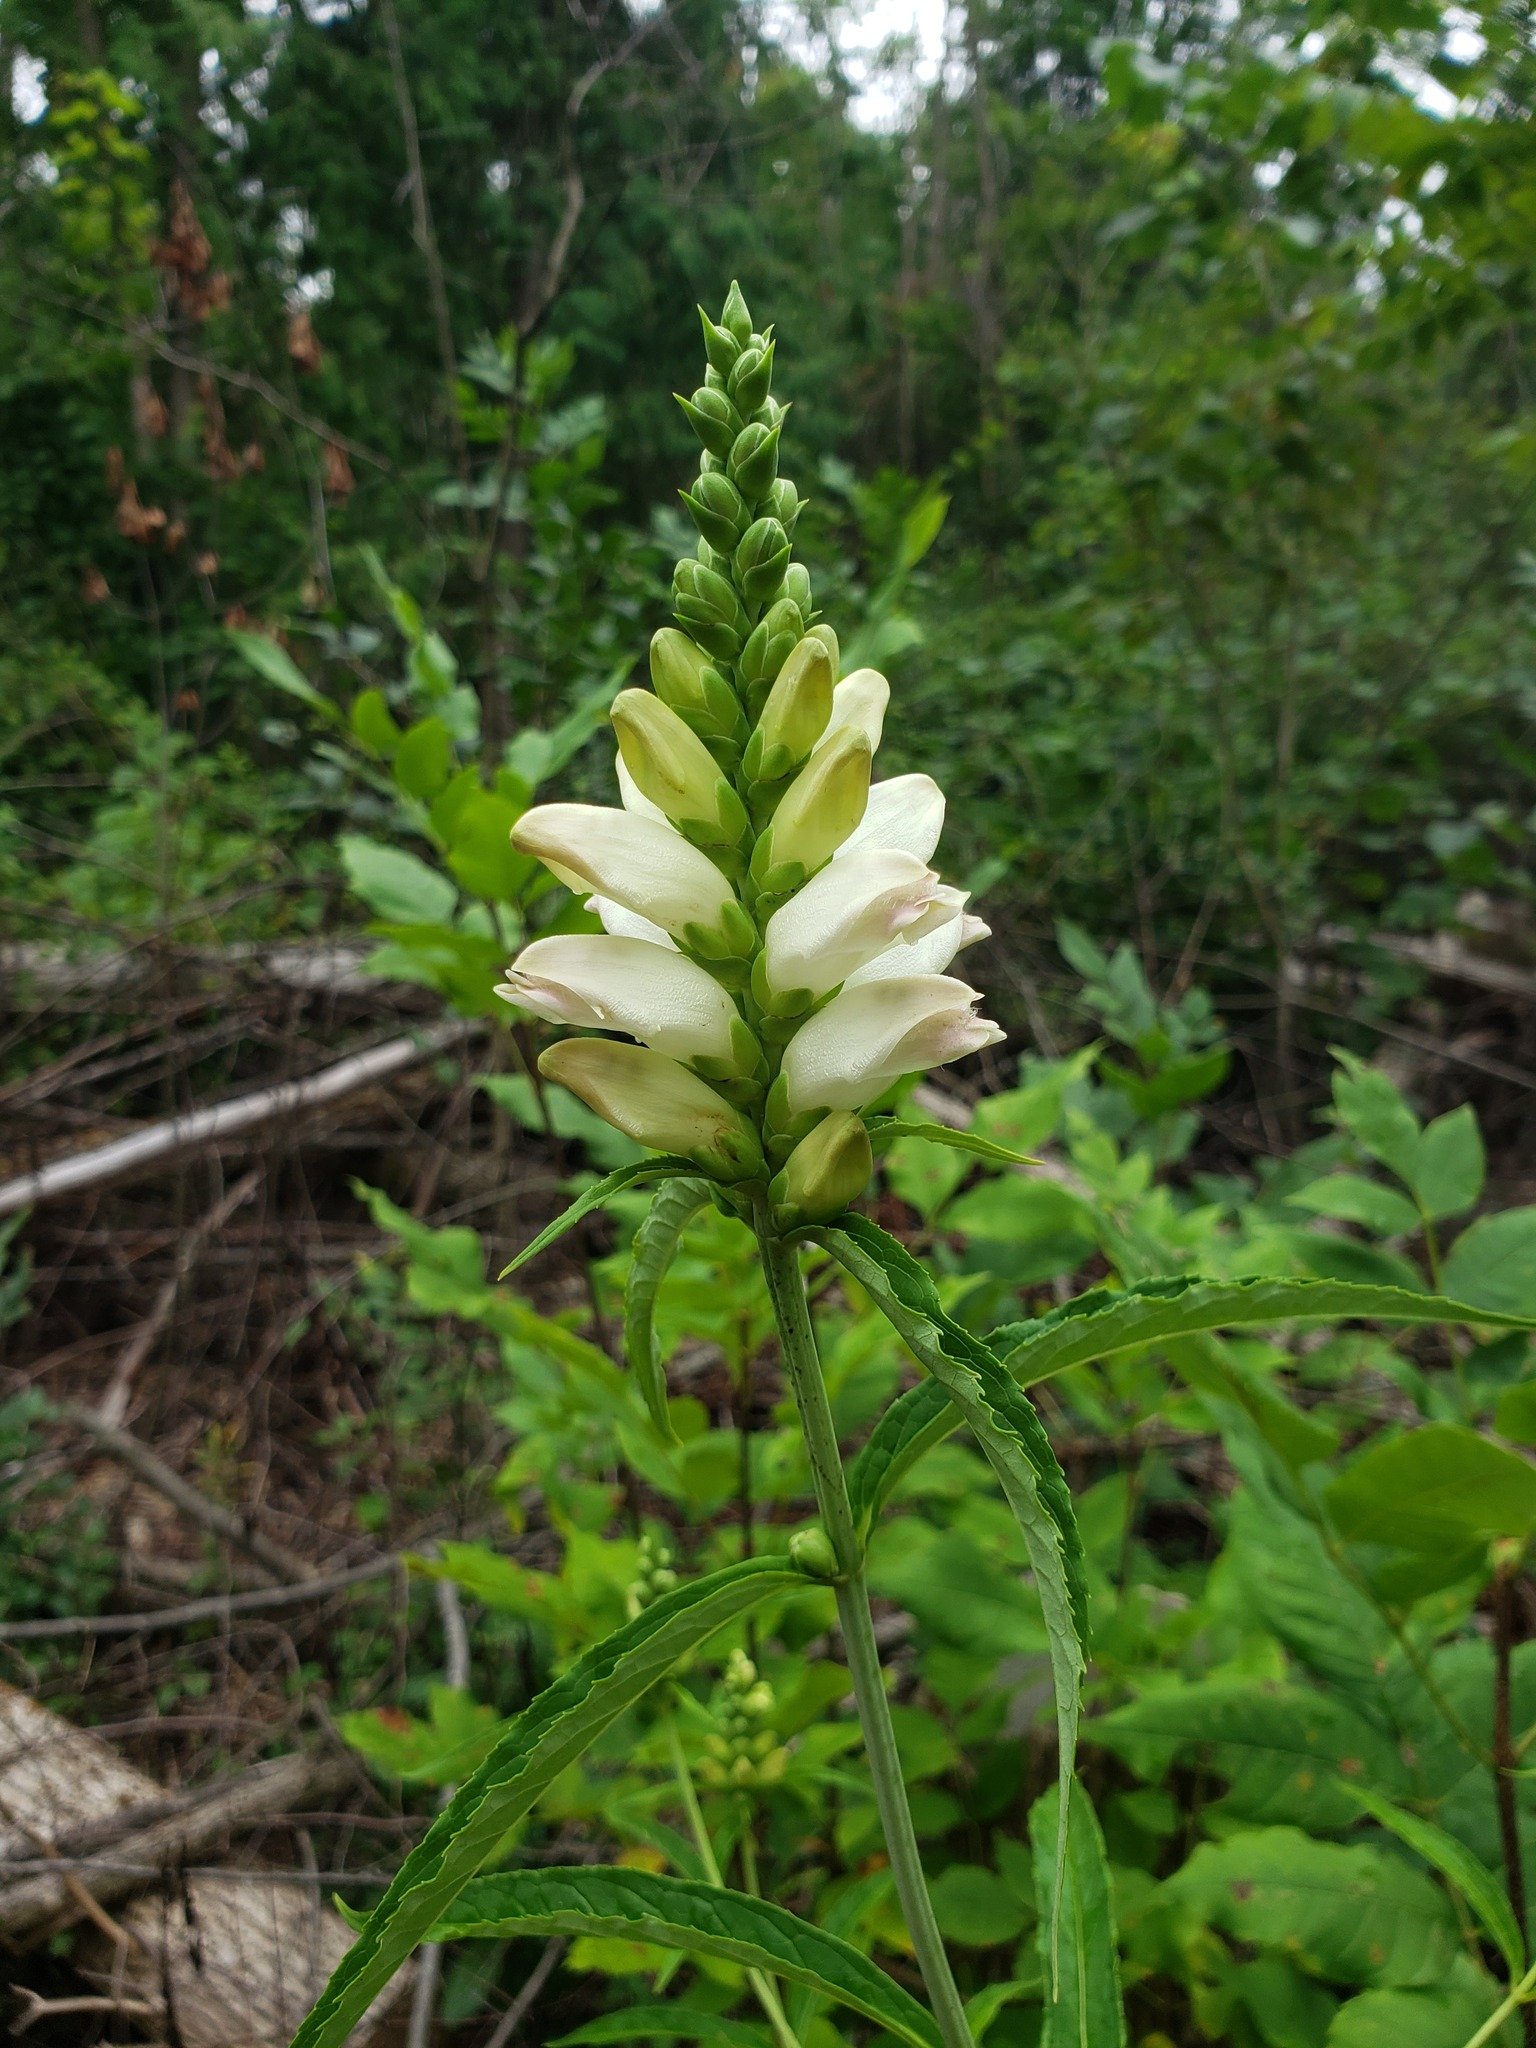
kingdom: Plantae
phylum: Tracheophyta
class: Magnoliopsida
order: Lamiales
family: Plantaginaceae
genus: Chelone
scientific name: Chelone glabra
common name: Snakehead
